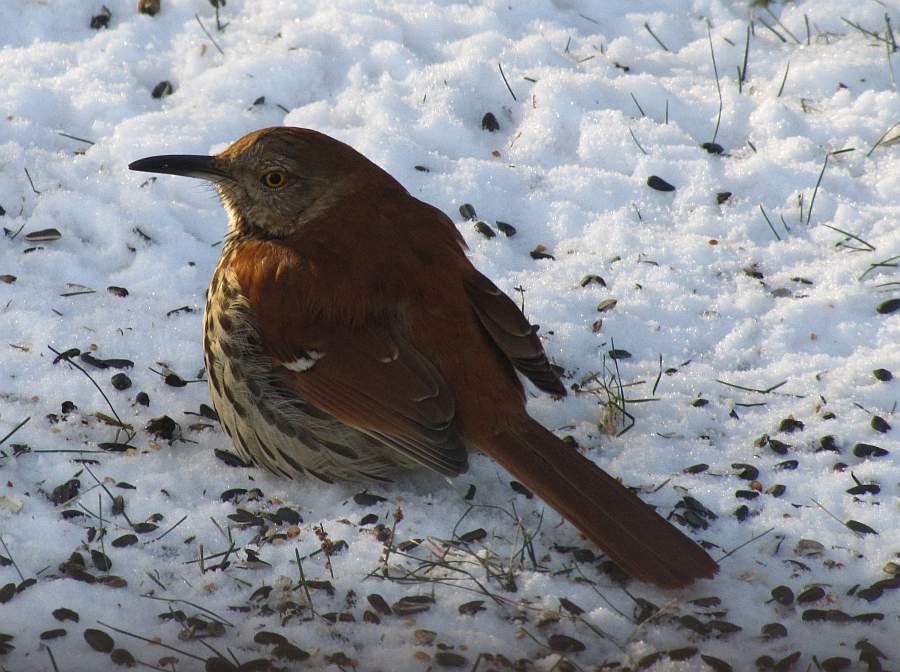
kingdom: Animalia
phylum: Chordata
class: Aves
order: Passeriformes
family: Mimidae
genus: Toxostoma
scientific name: Toxostoma rufum
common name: Brown thrasher
